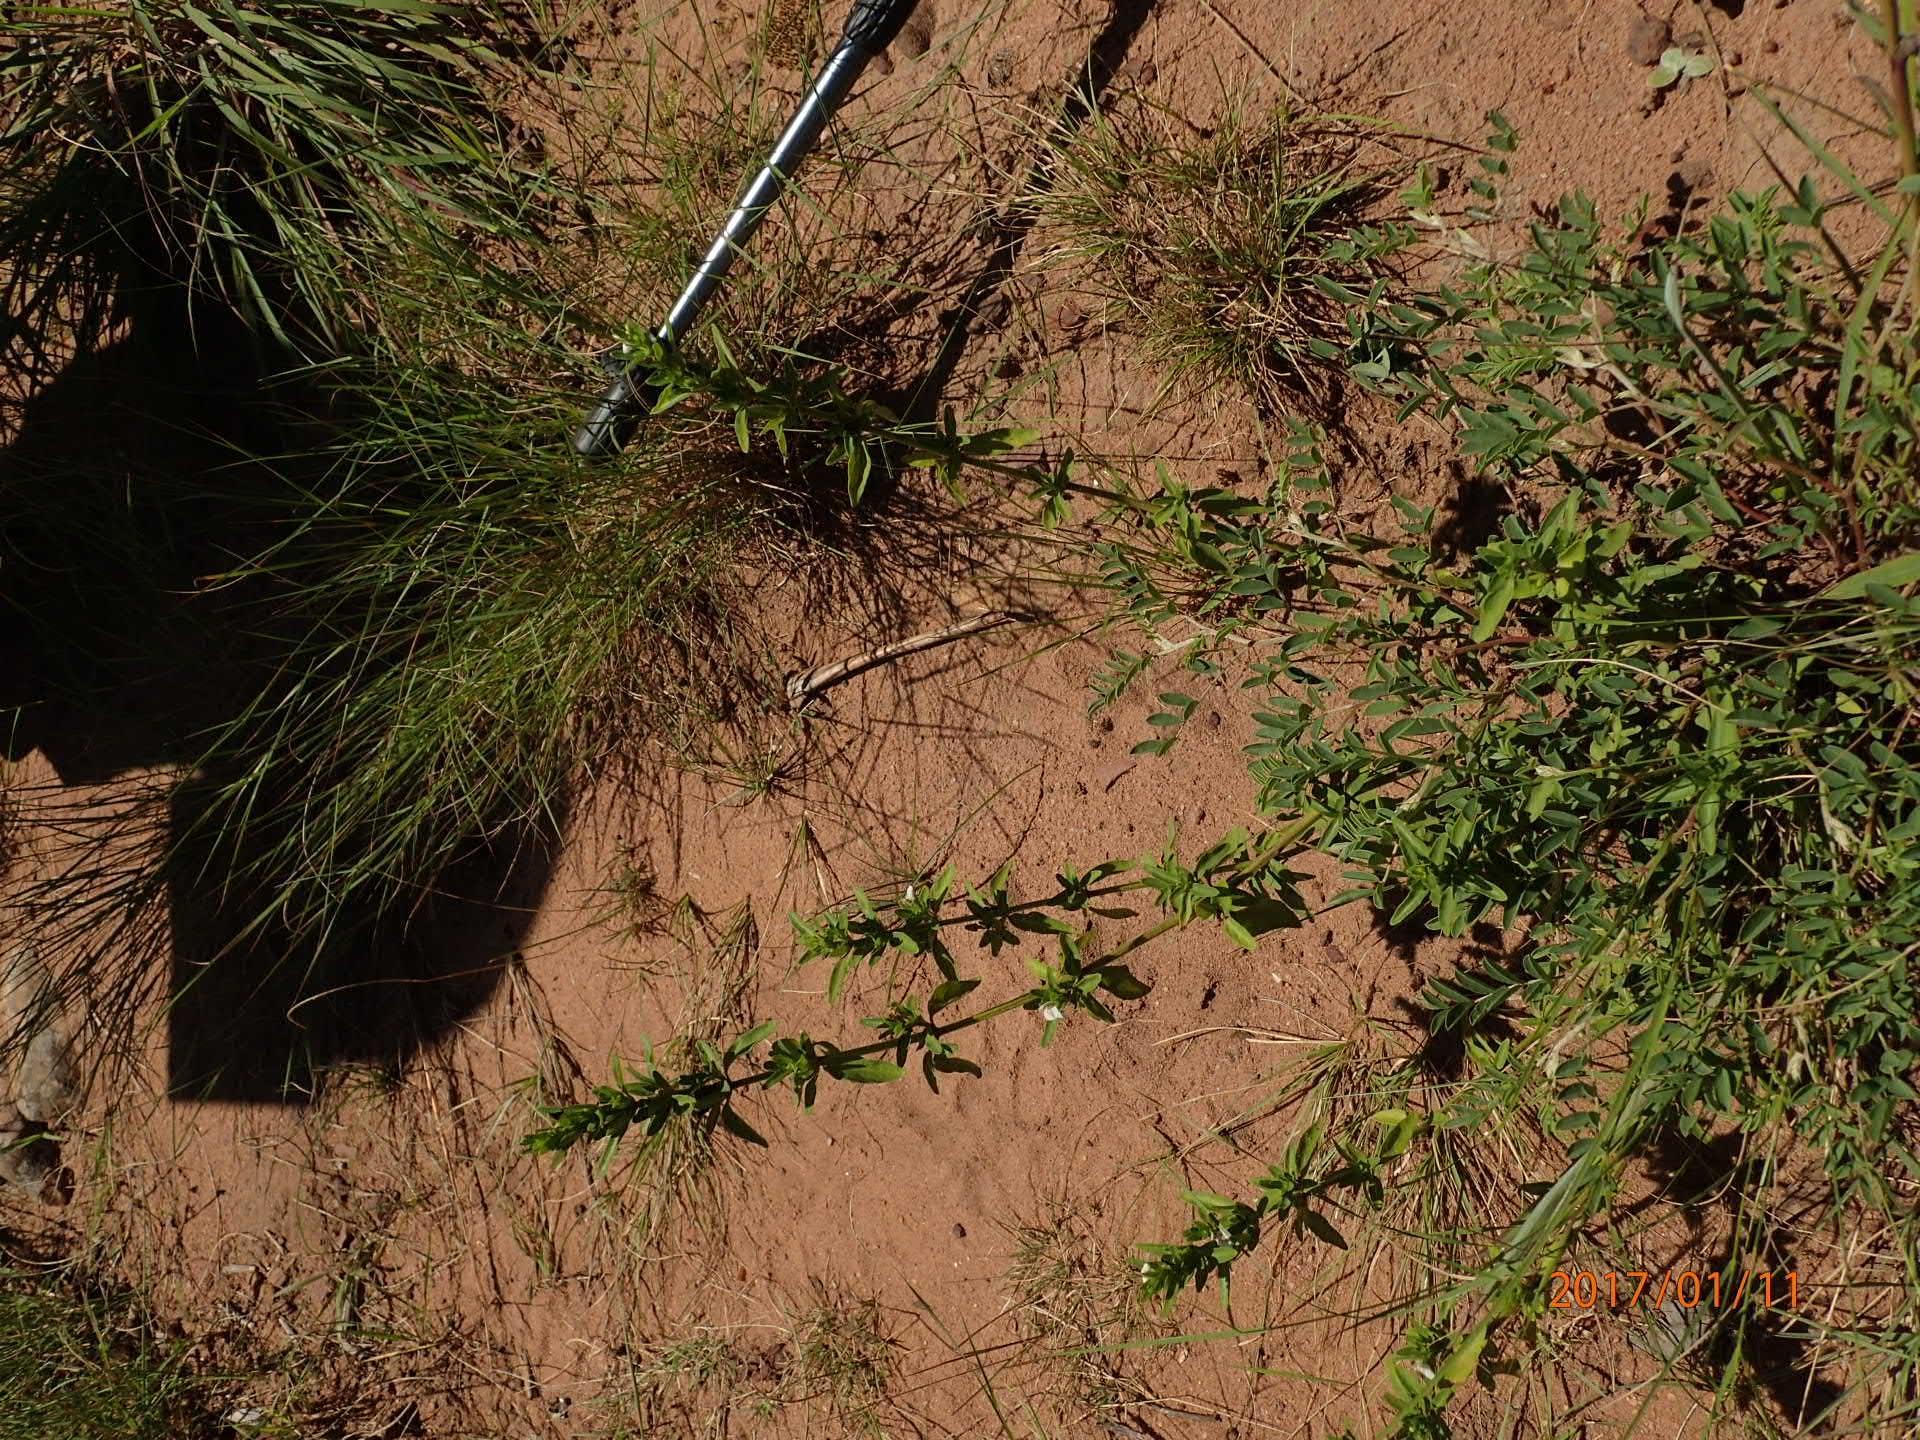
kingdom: Plantae
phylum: Tracheophyta
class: Magnoliopsida
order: Lamiales
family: Acanthaceae
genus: Justicia
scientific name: Justicia protracta
